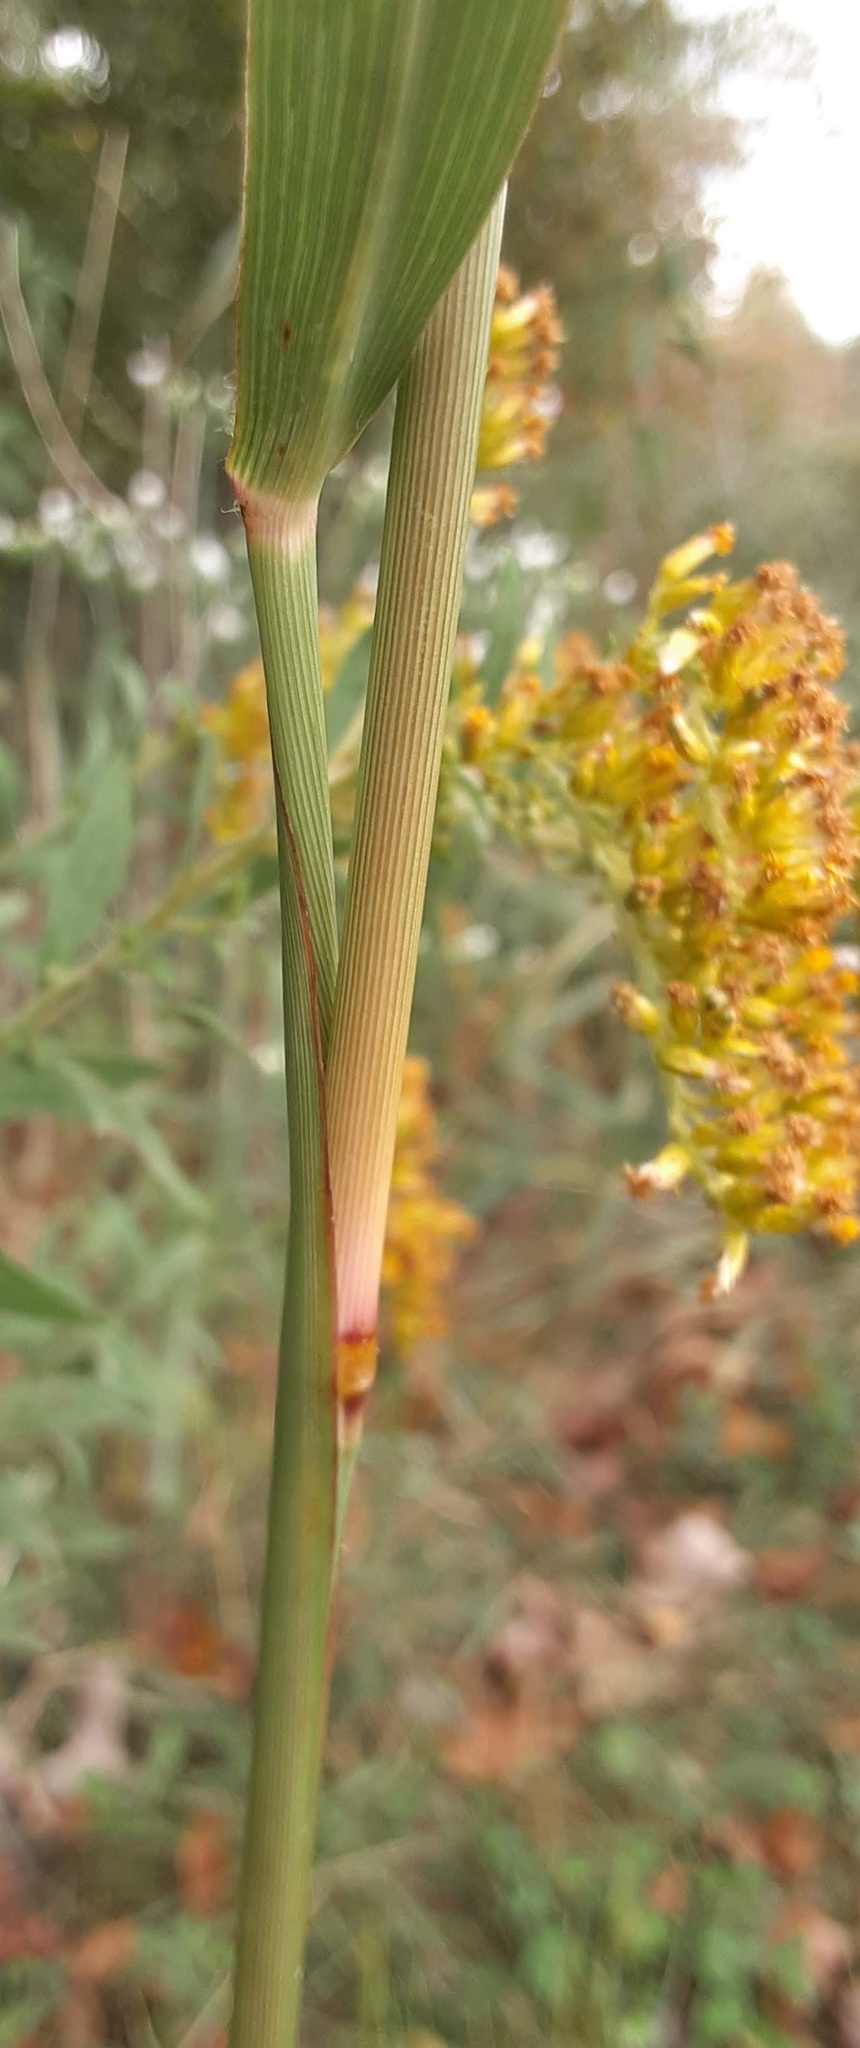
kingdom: Plantae
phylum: Tracheophyta
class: Liliopsida
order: Poales
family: Poaceae
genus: Panicum
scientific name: Panicum virgatum
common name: Switchgrass
